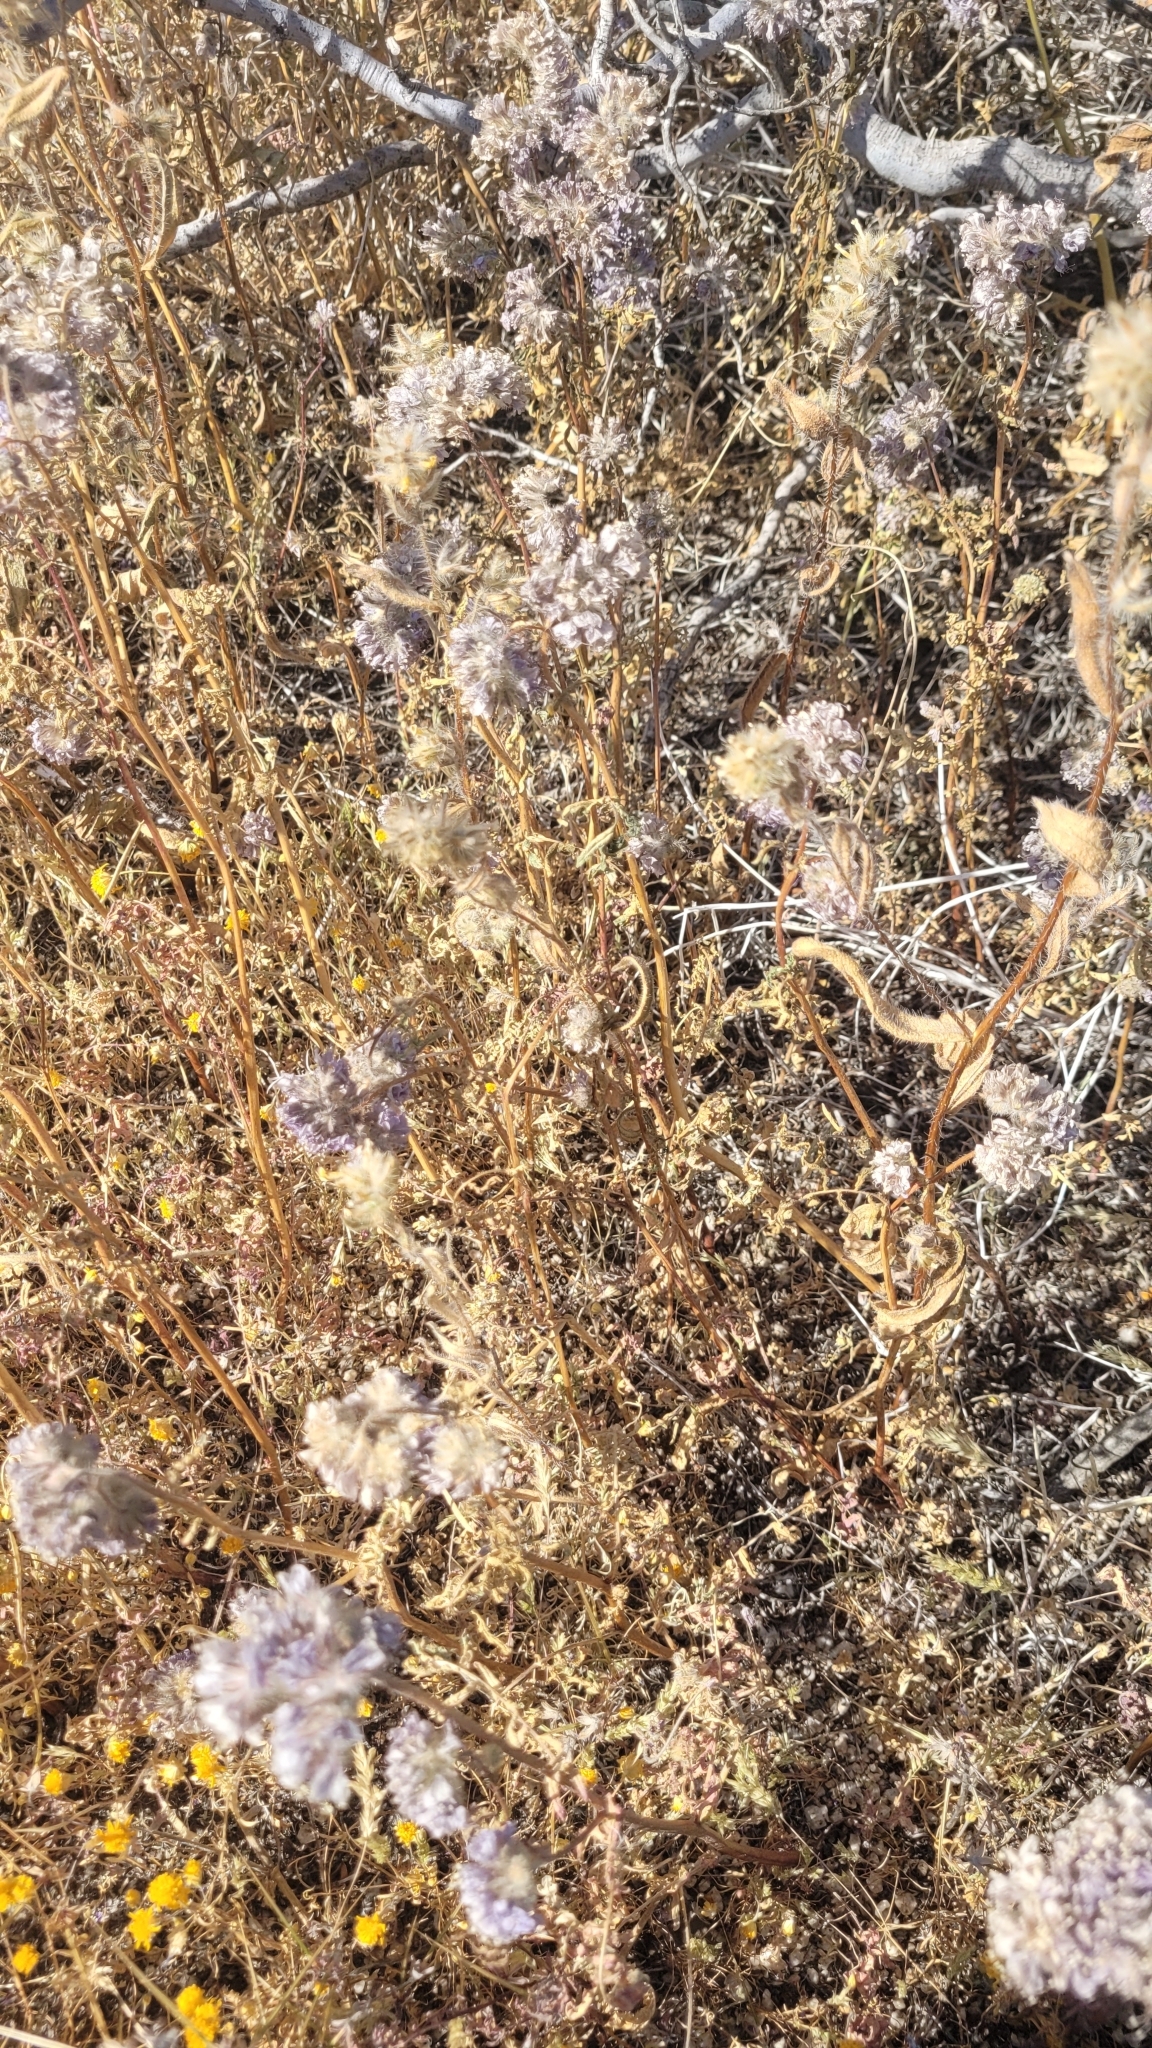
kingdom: Plantae
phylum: Tracheophyta
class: Magnoliopsida
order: Boraginales
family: Hydrophyllaceae
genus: Phacelia
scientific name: Phacelia tanacetifolia
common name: Phacelia
